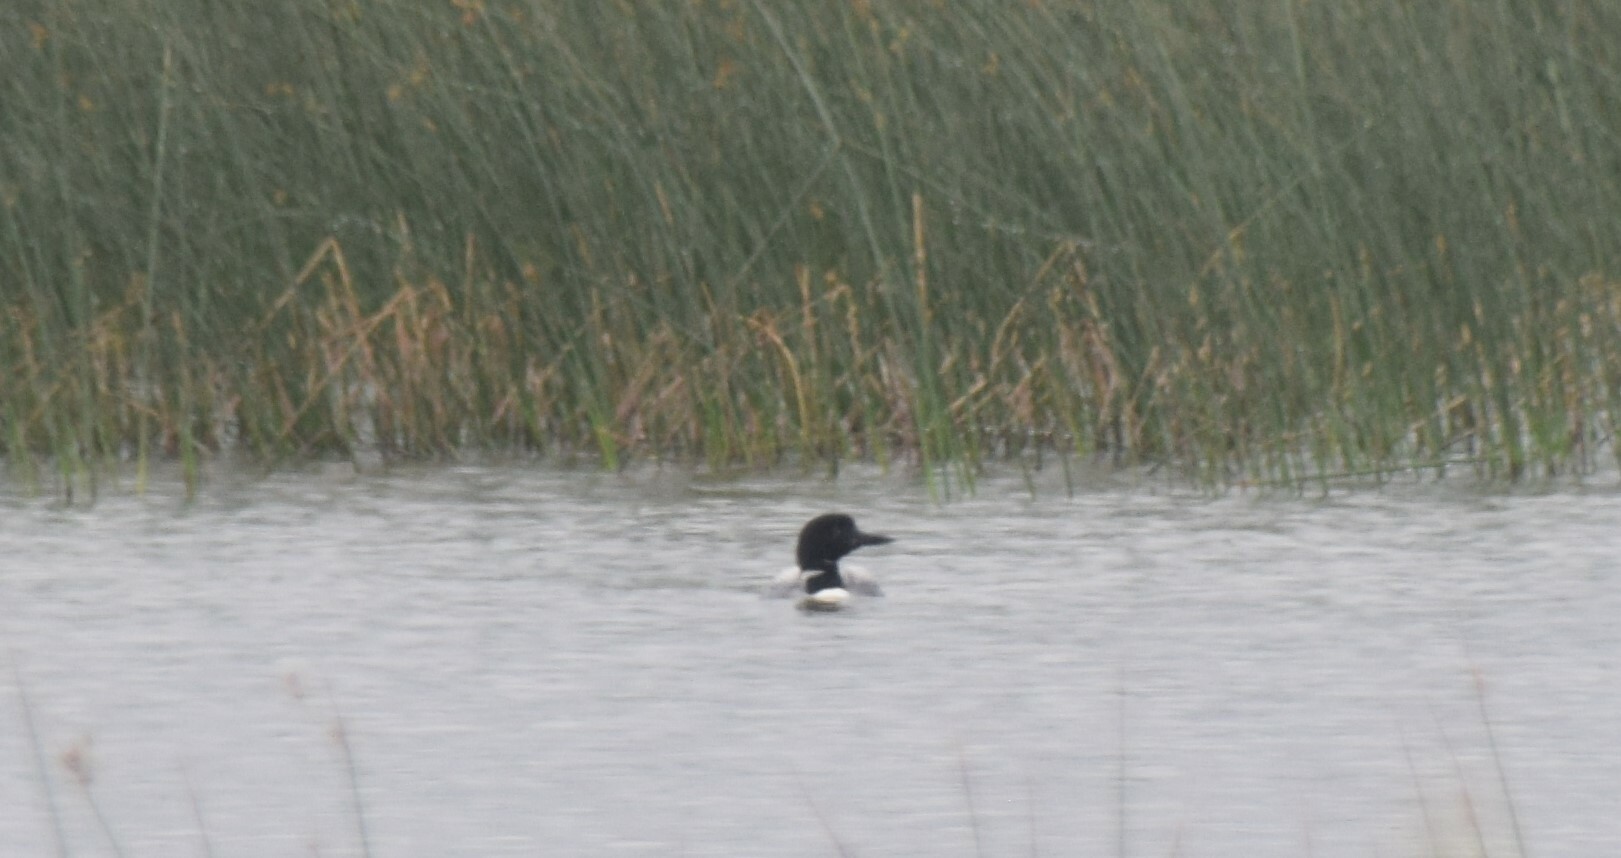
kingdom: Animalia
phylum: Chordata
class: Aves
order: Gaviiformes
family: Gaviidae
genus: Gavia
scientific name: Gavia immer
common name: Common loon
